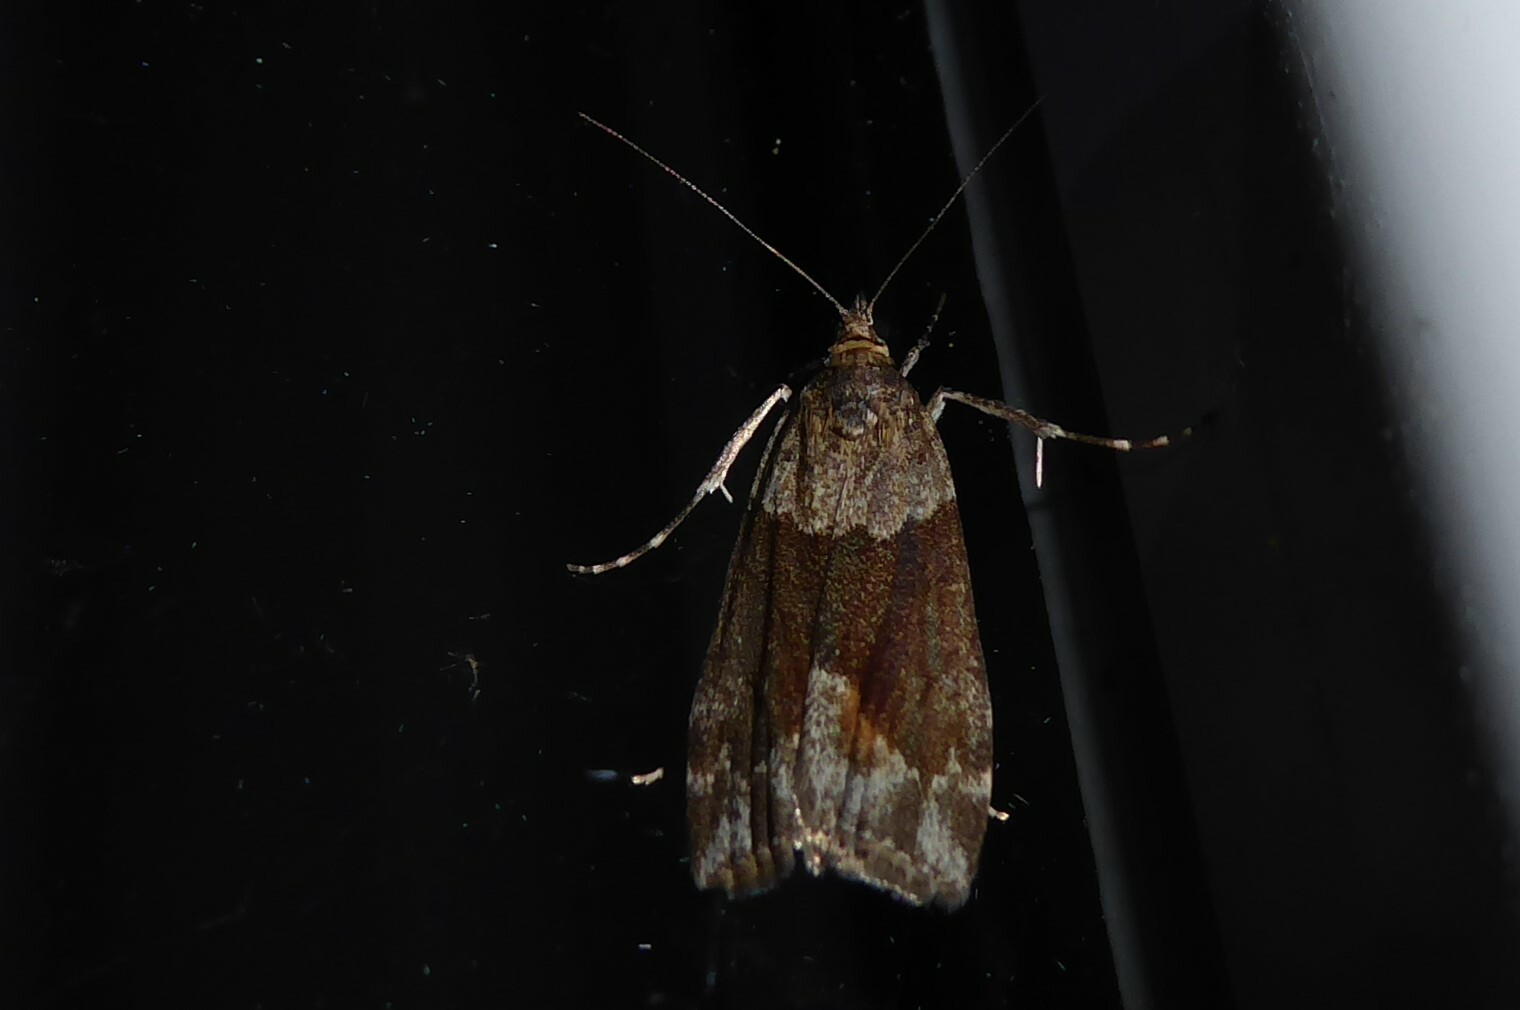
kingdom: Animalia
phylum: Arthropoda
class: Insecta
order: Lepidoptera
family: Crambidae
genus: Eudonia
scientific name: Eudonia submarginalis
